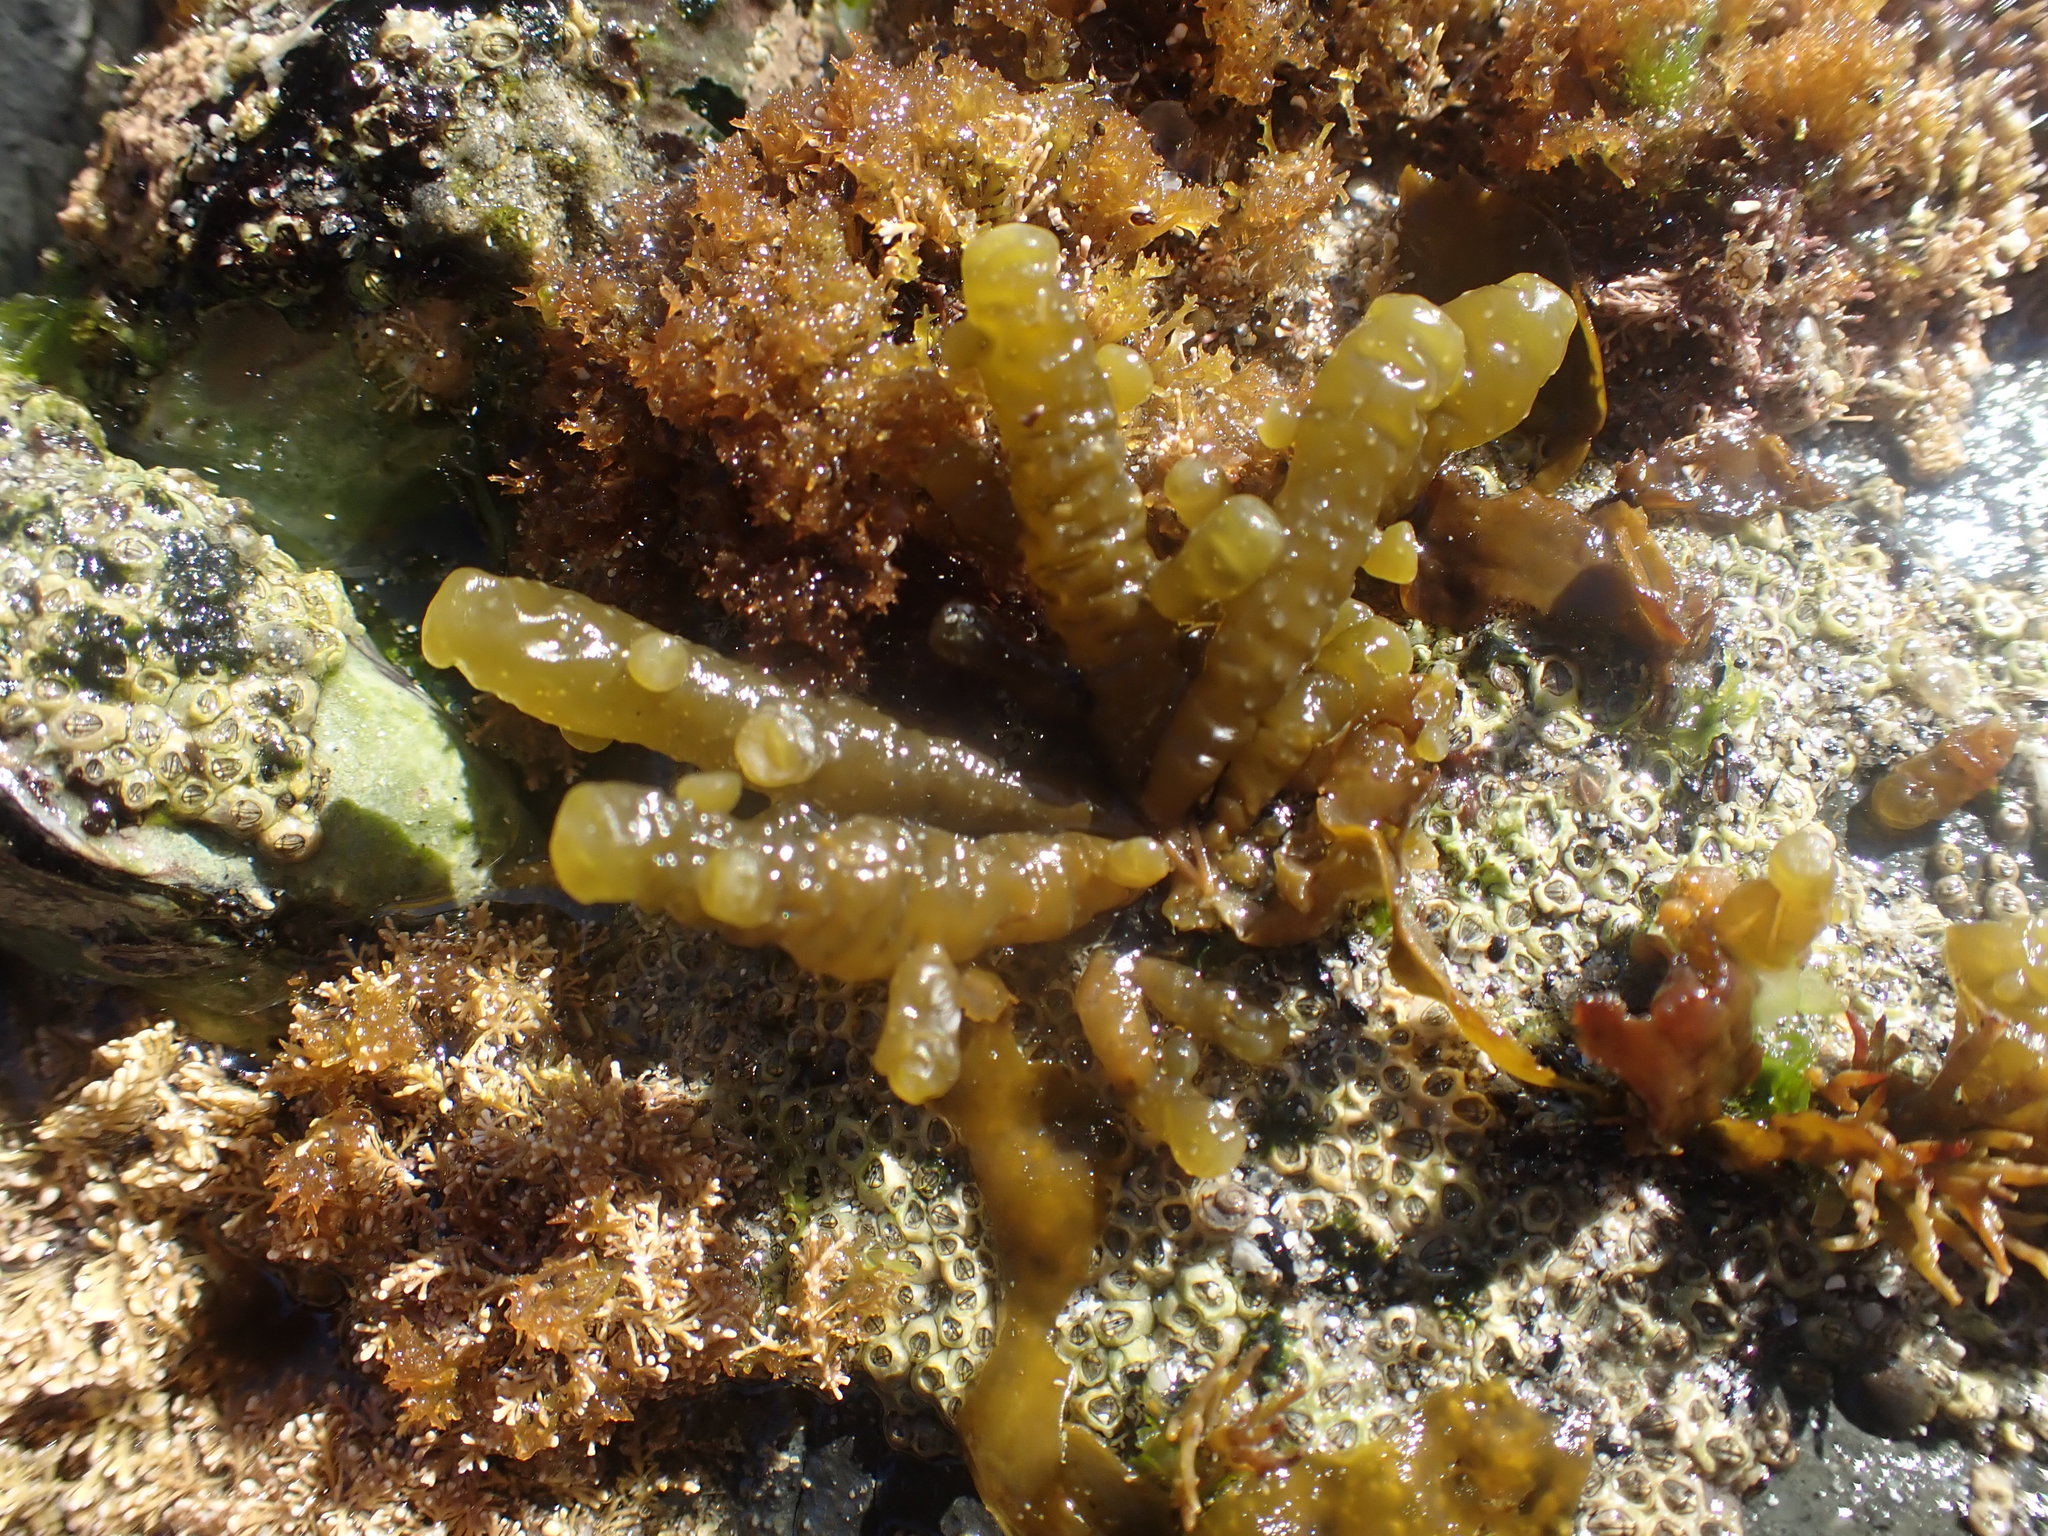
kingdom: Chromista
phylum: Ochrophyta
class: Phaeophyceae
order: Scytothamnales
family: Splachnidiaceae
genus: Splachnidium
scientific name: Splachnidium rugosum
